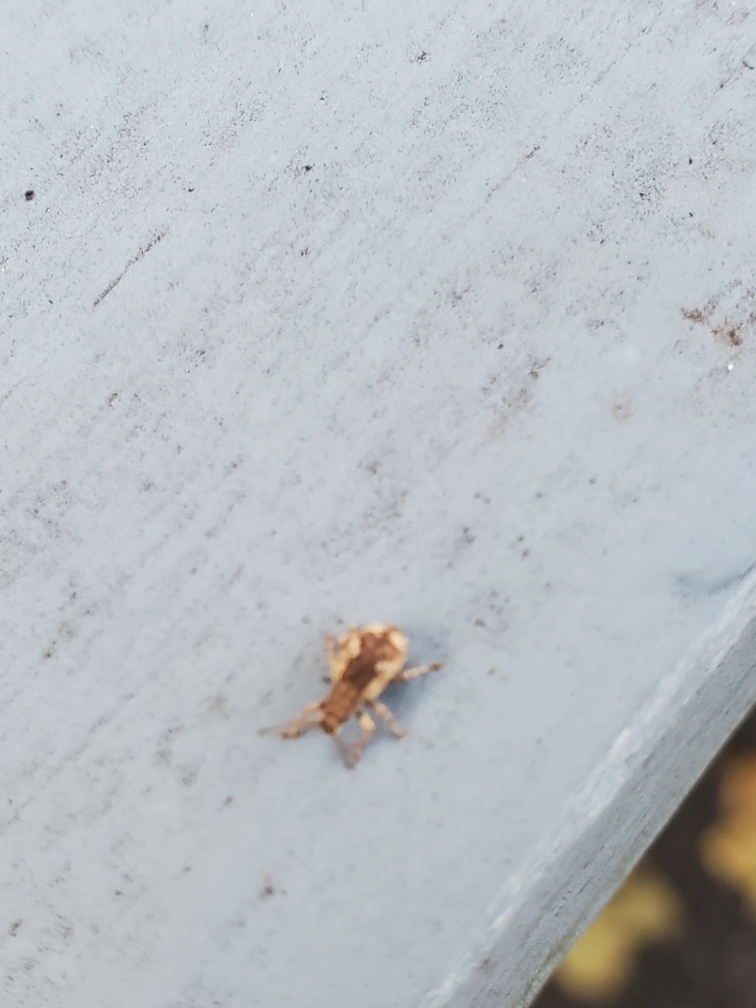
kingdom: Animalia
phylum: Arthropoda
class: Insecta
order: Coleoptera
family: Curculionidae
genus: Pseudoedophrys
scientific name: Pseudoedophrys hilleri
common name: Weevil
